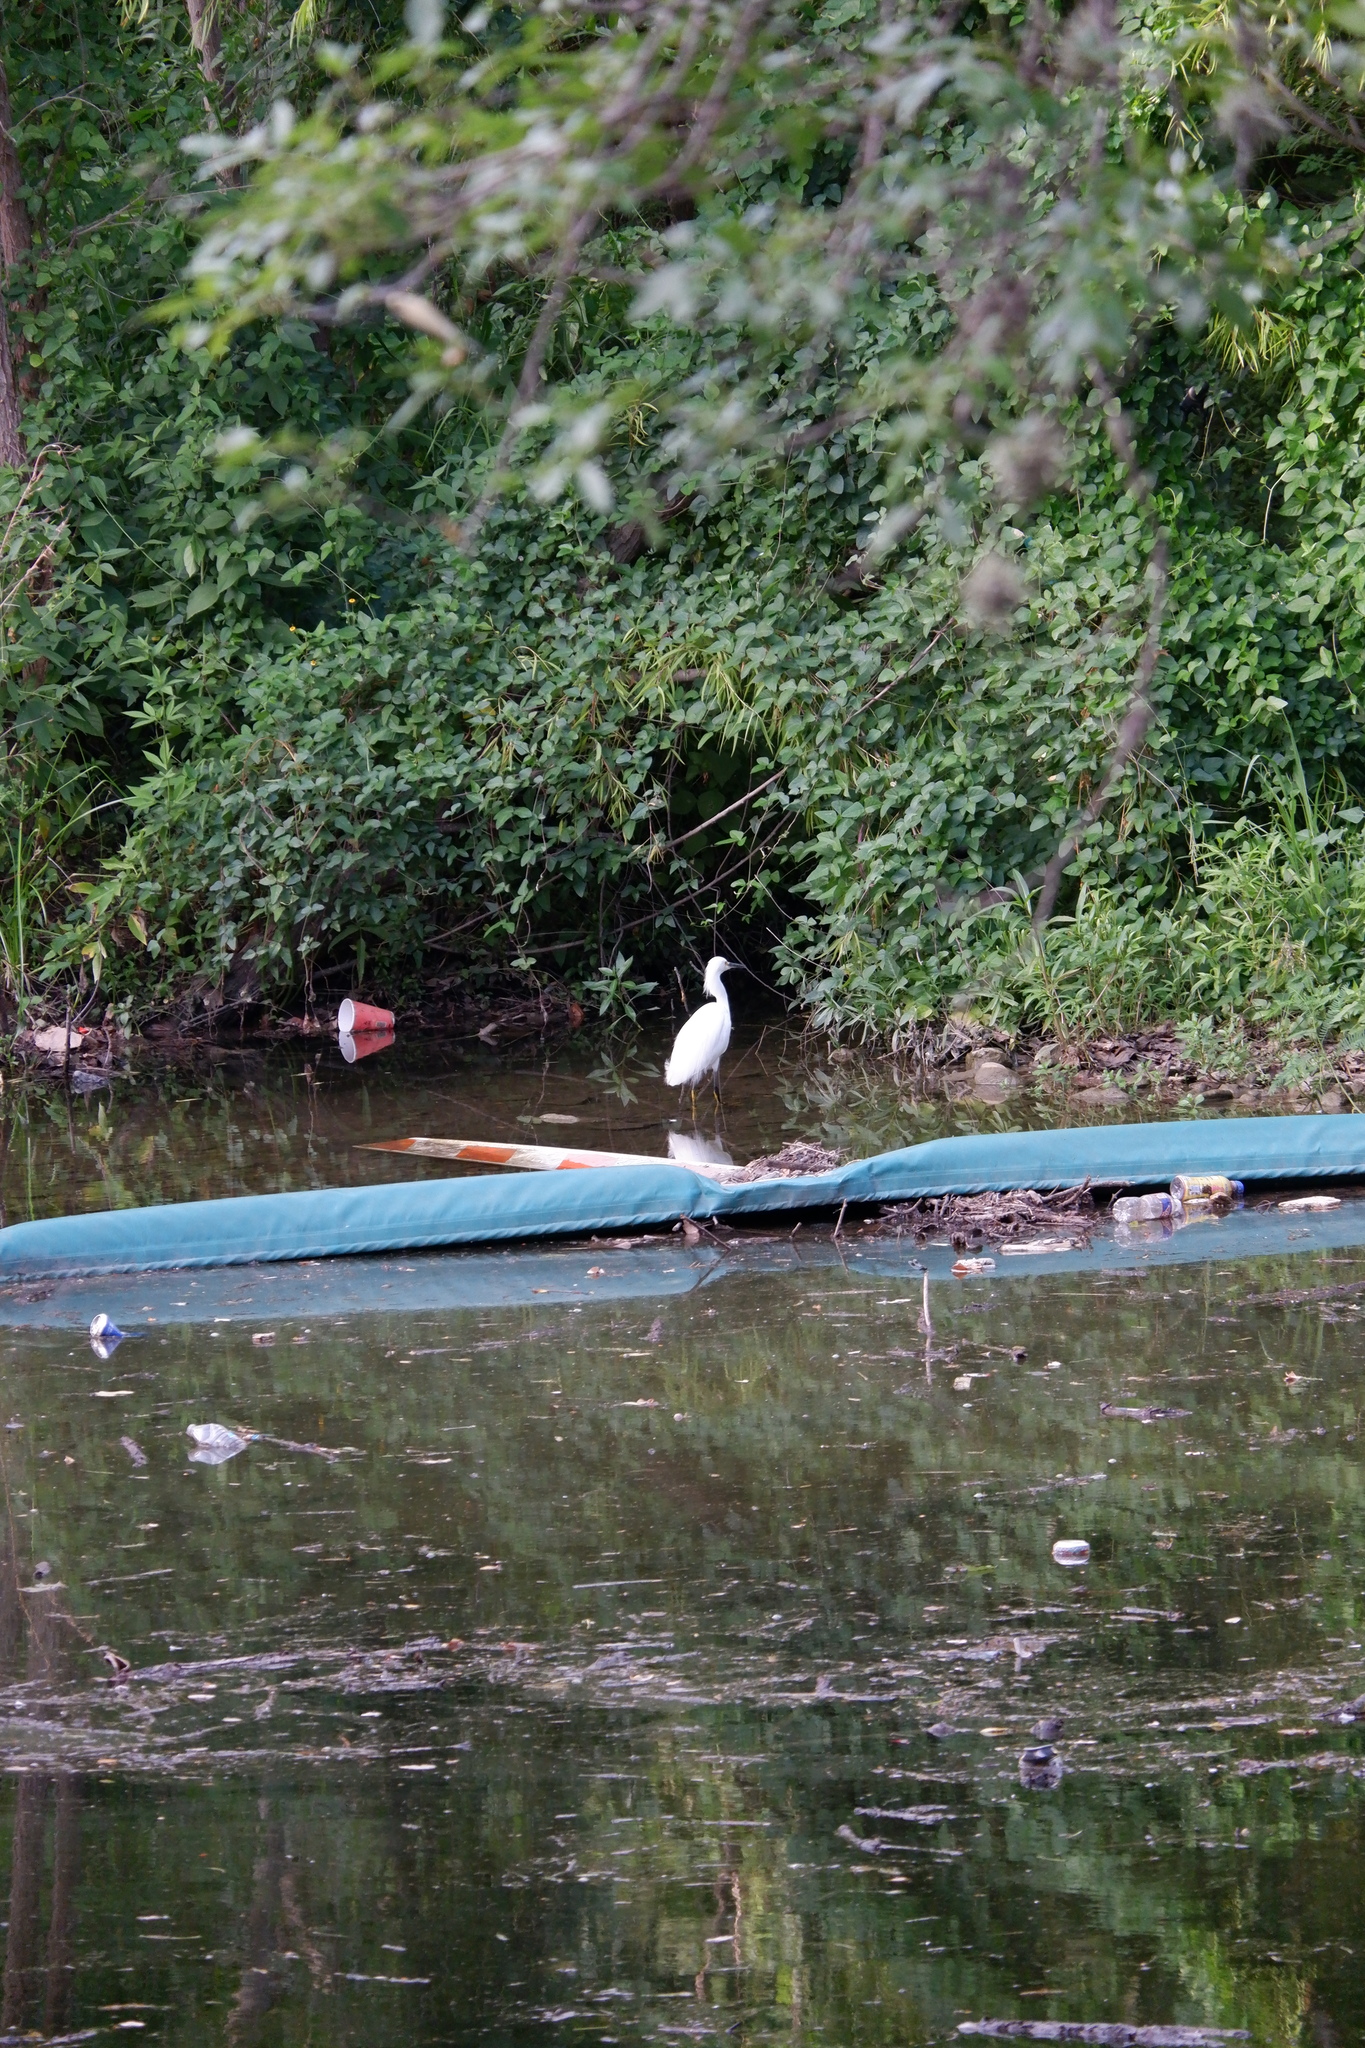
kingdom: Animalia
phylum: Chordata
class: Aves
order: Pelecaniformes
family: Ardeidae
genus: Egretta
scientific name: Egretta thula
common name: Snowy egret
